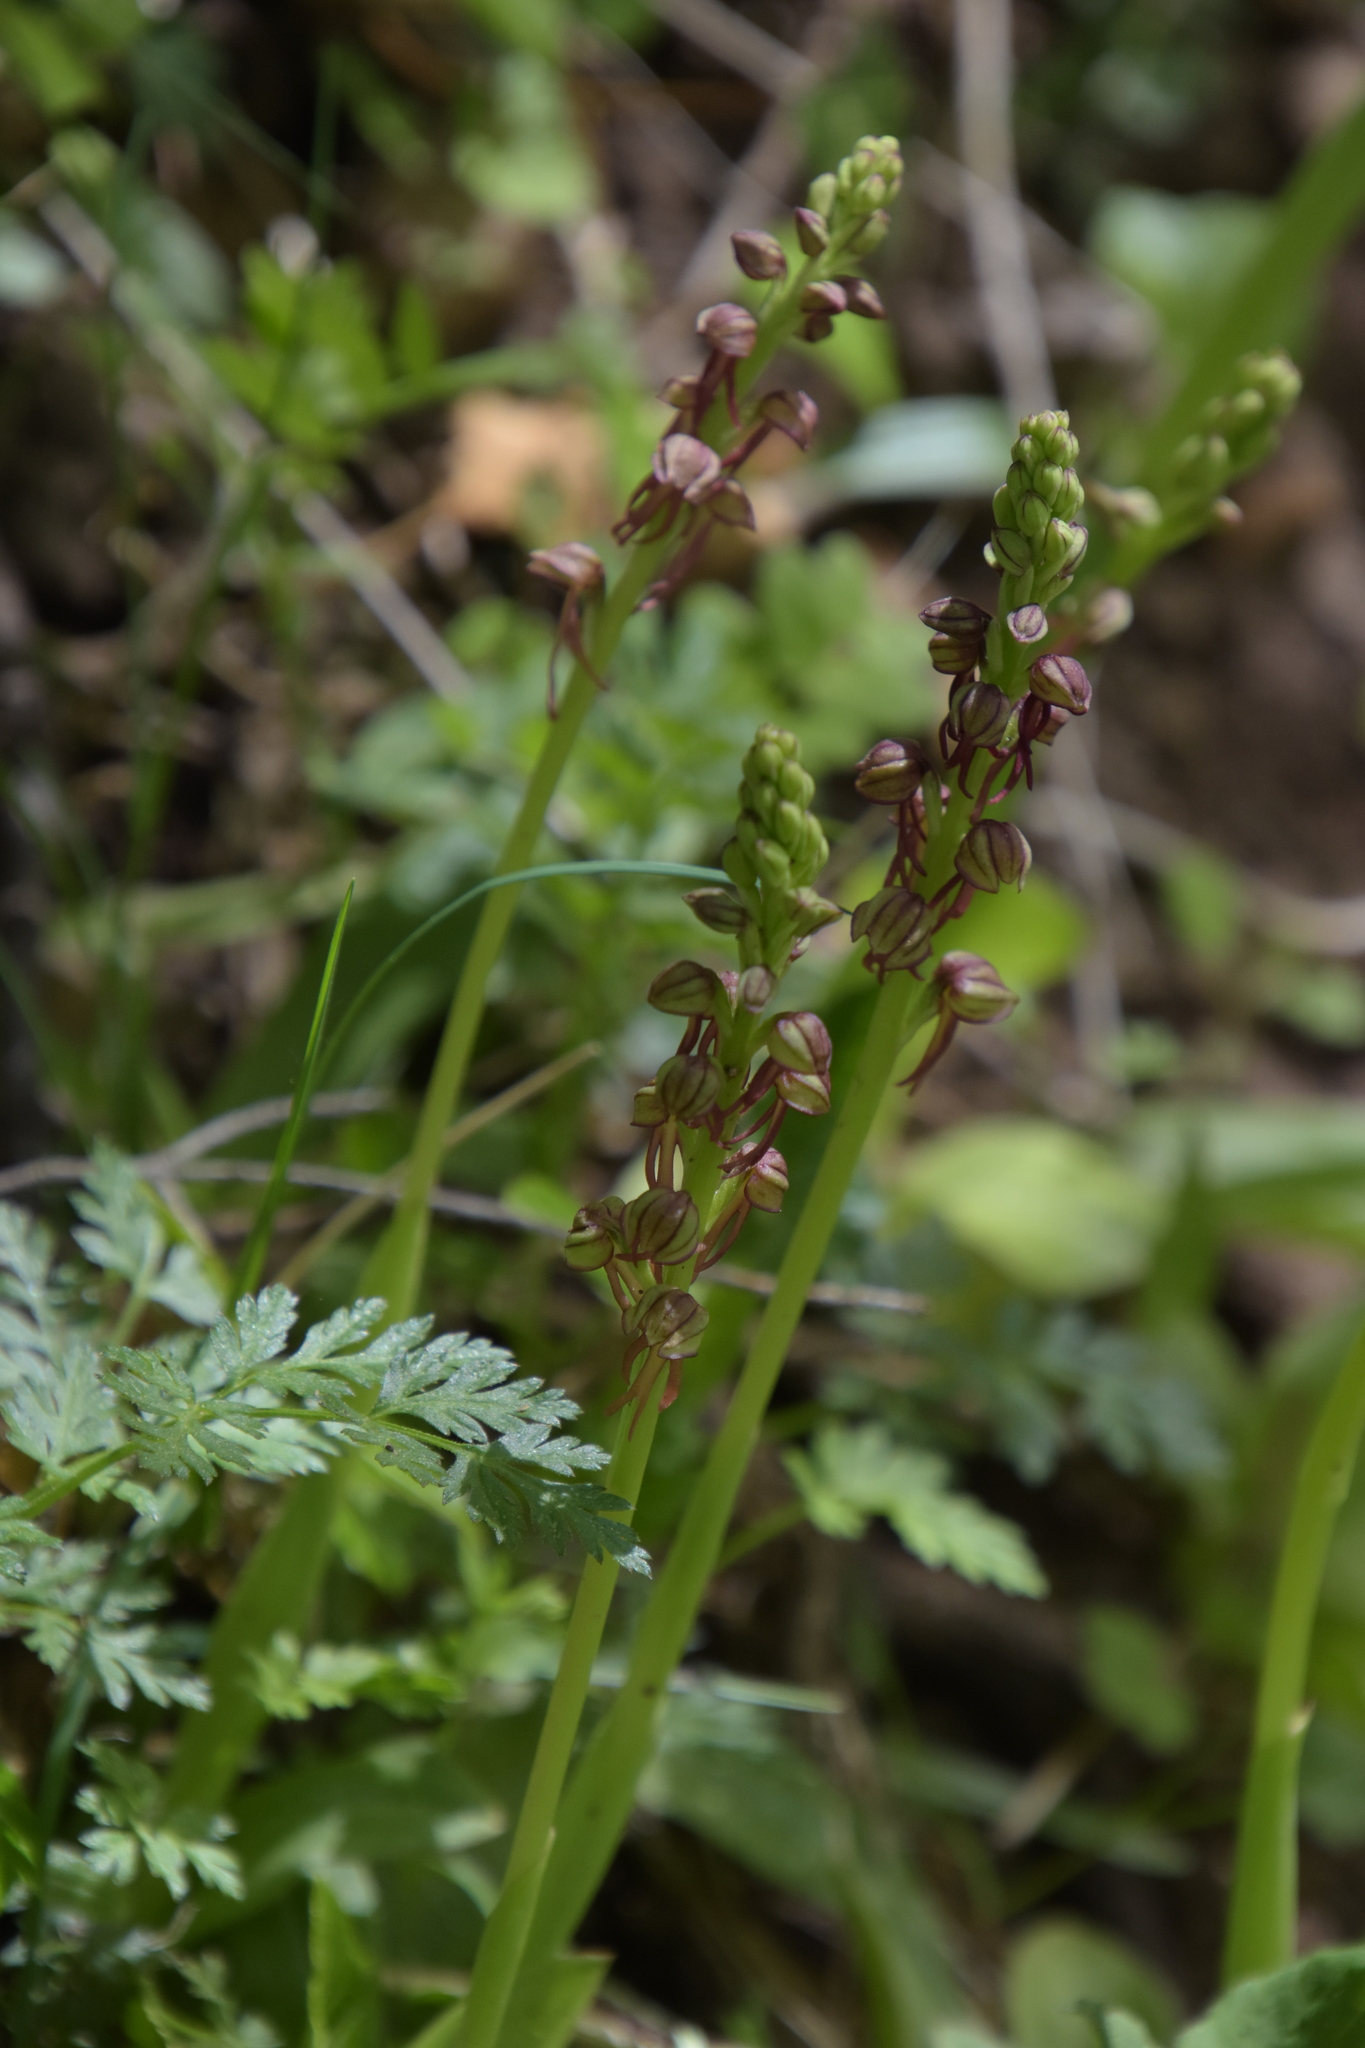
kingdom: Plantae
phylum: Tracheophyta
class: Liliopsida
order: Asparagales
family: Orchidaceae
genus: Orchis
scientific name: Orchis anthropophora
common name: Man orchid
